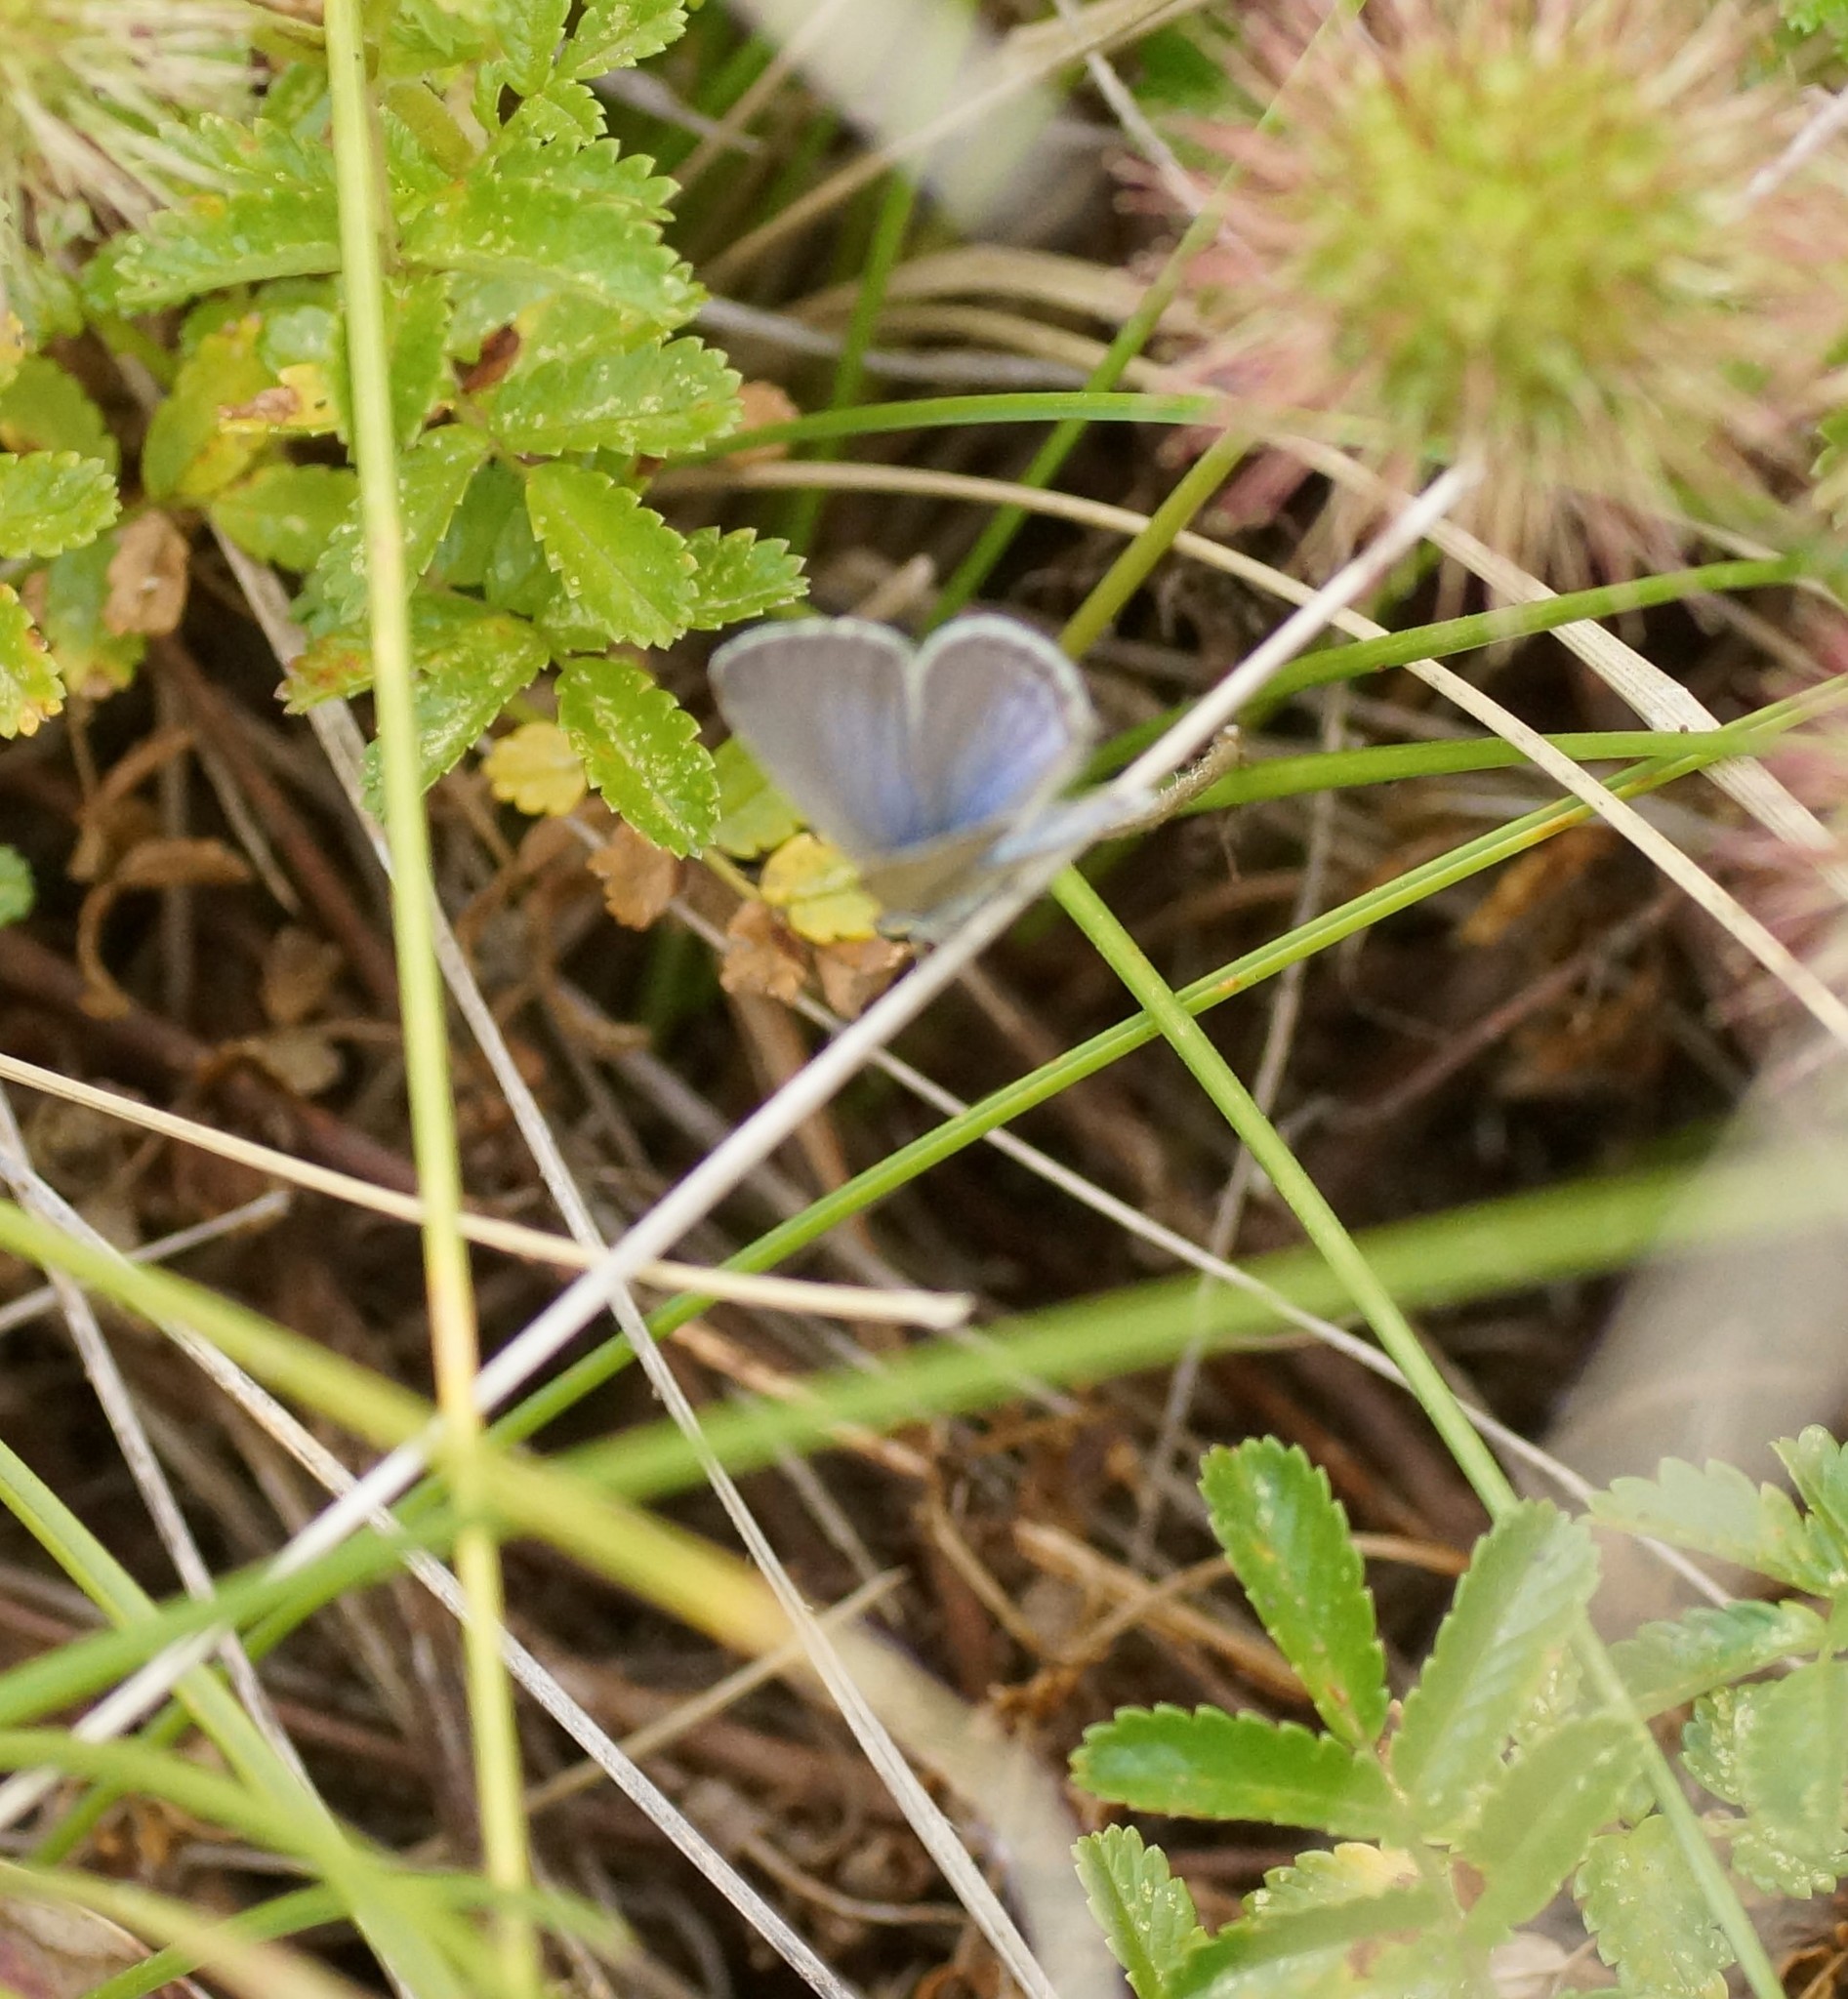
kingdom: Animalia
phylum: Arthropoda
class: Insecta
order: Lepidoptera
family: Lycaenidae
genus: Zizina
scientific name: Zizina labradus
